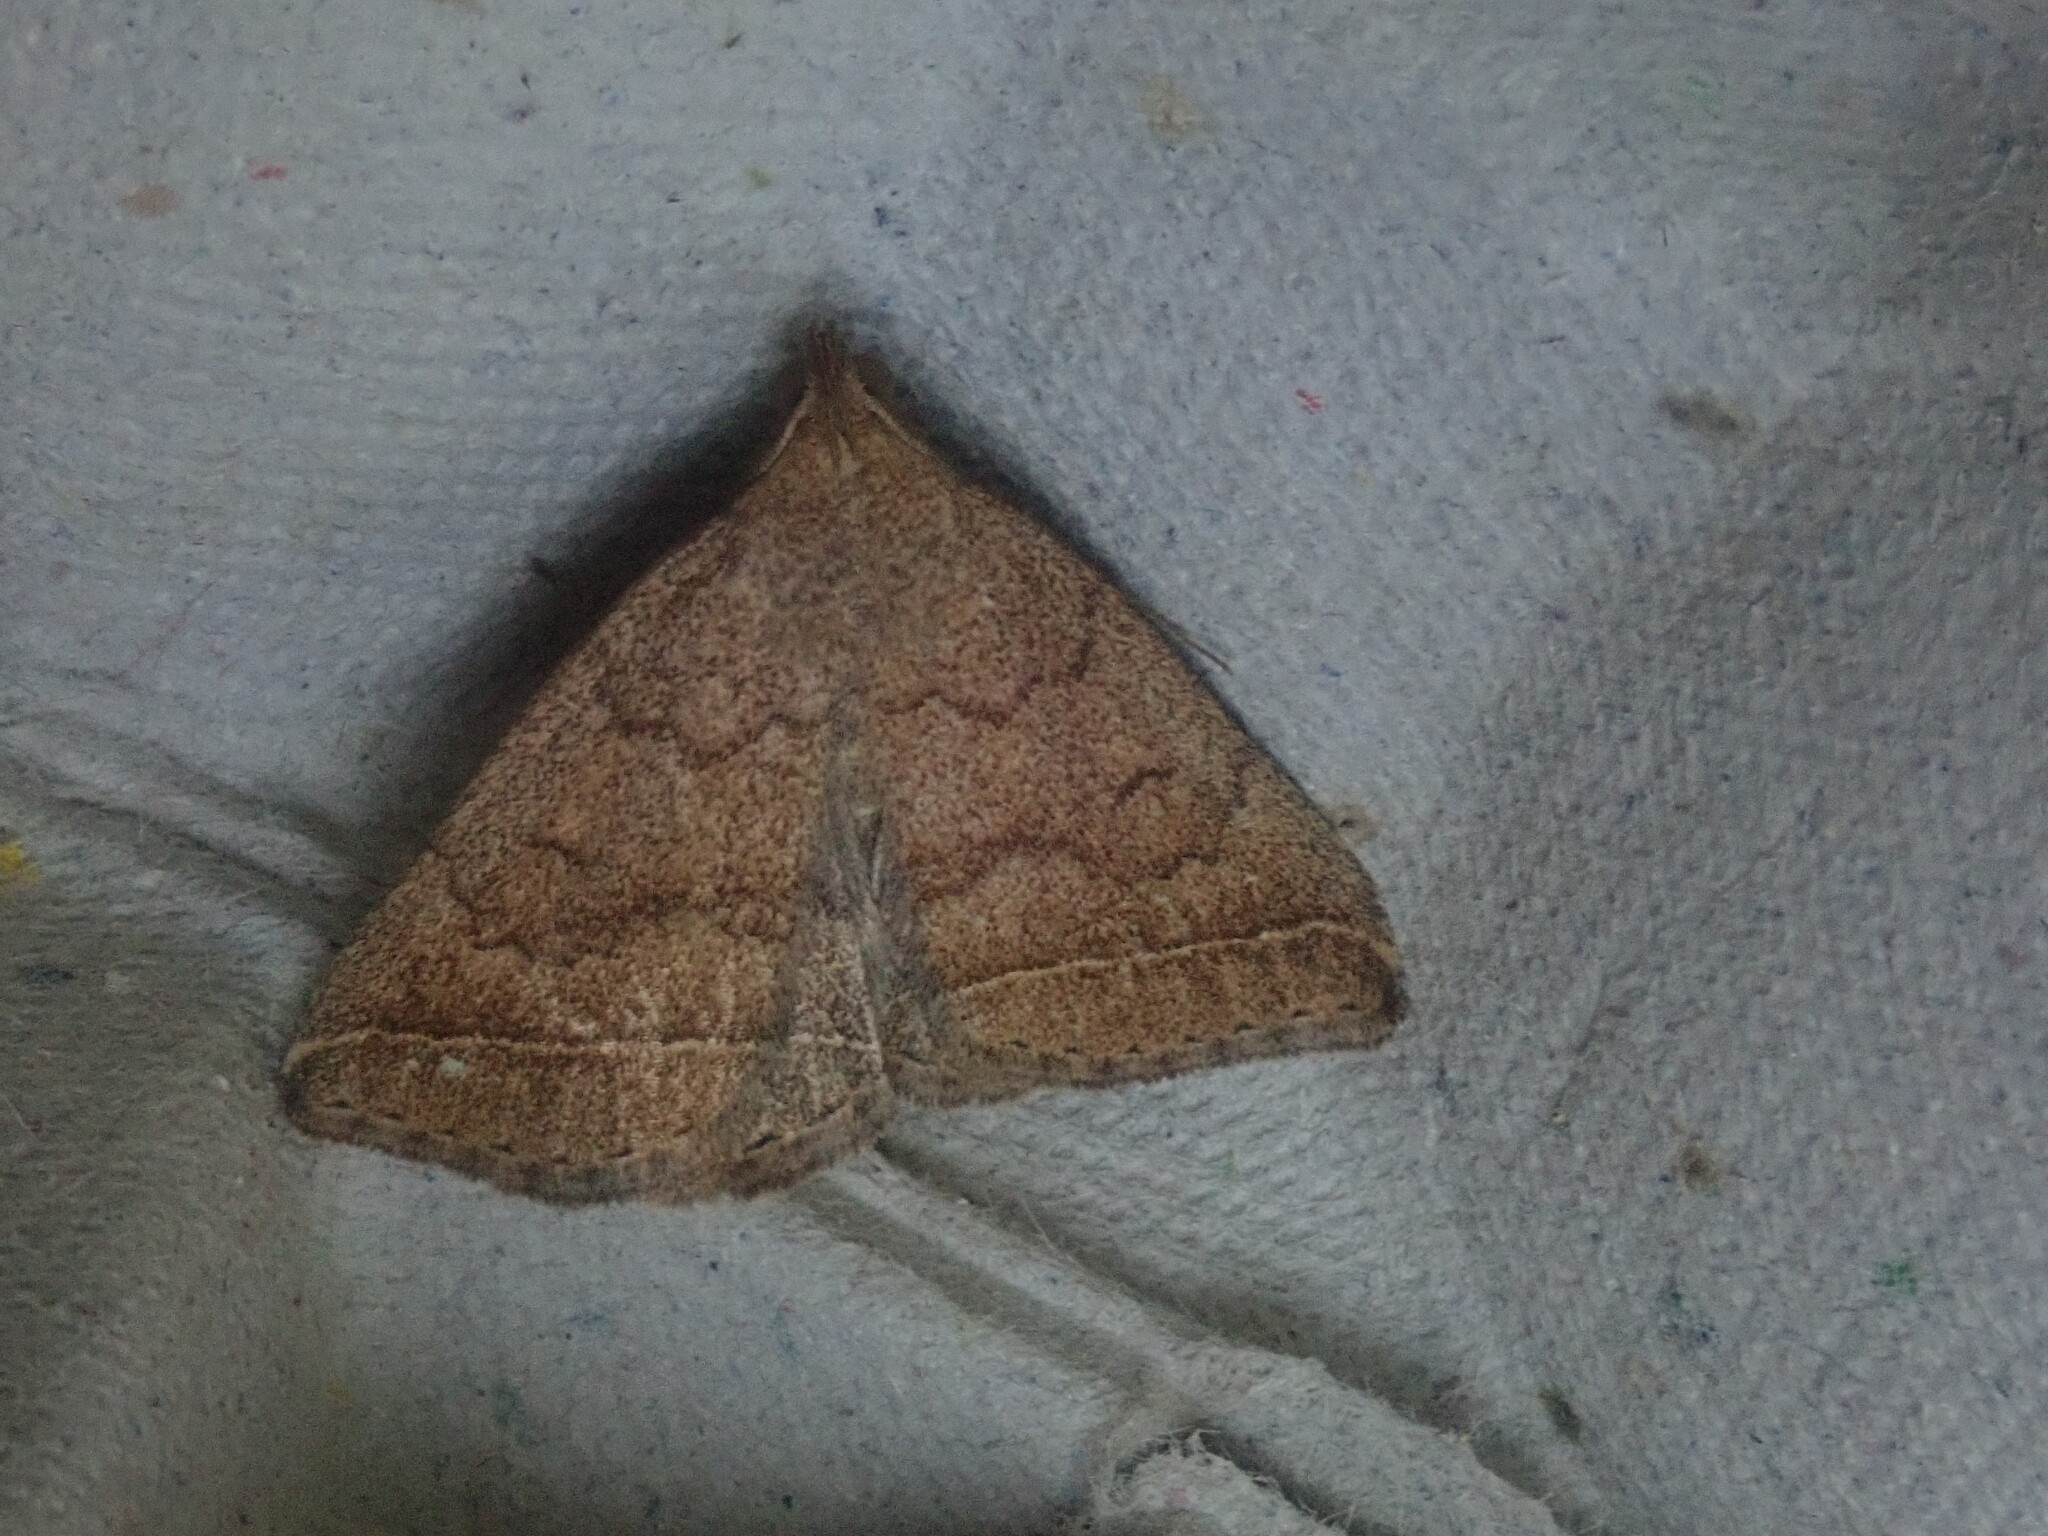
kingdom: Animalia
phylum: Arthropoda
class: Insecta
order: Lepidoptera
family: Erebidae
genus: Zanclognatha
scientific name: Zanclognatha jacchusalis
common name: Yellowish zanclognatha
